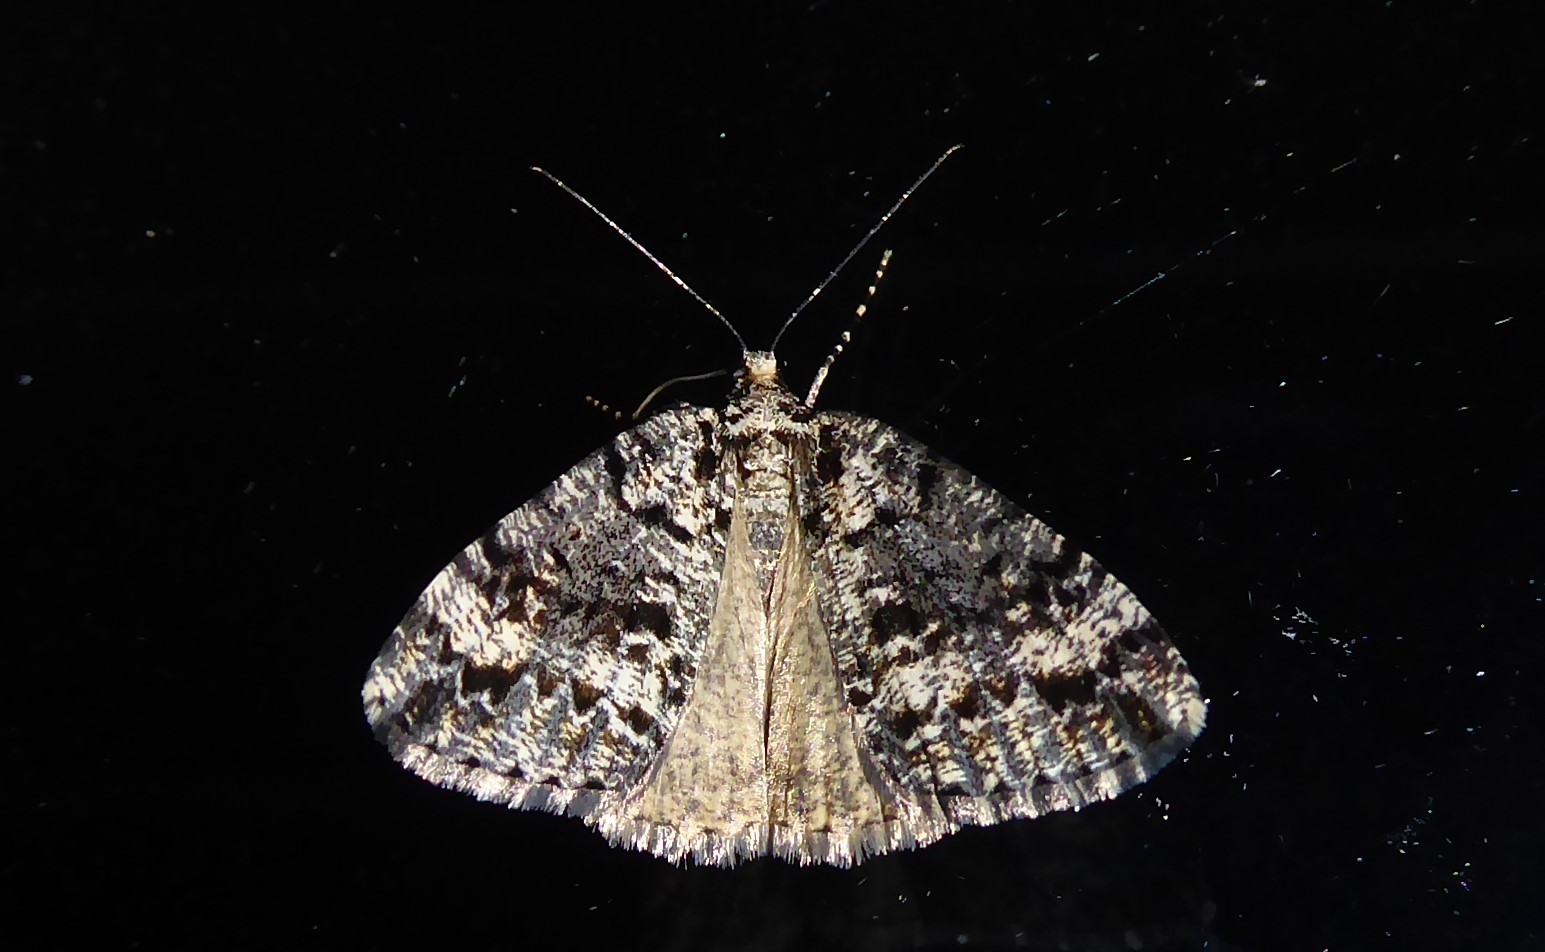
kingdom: Animalia
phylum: Arthropoda
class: Insecta
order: Lepidoptera
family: Geometridae
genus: Pseudocoremia
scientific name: Pseudocoremia leucelaea
